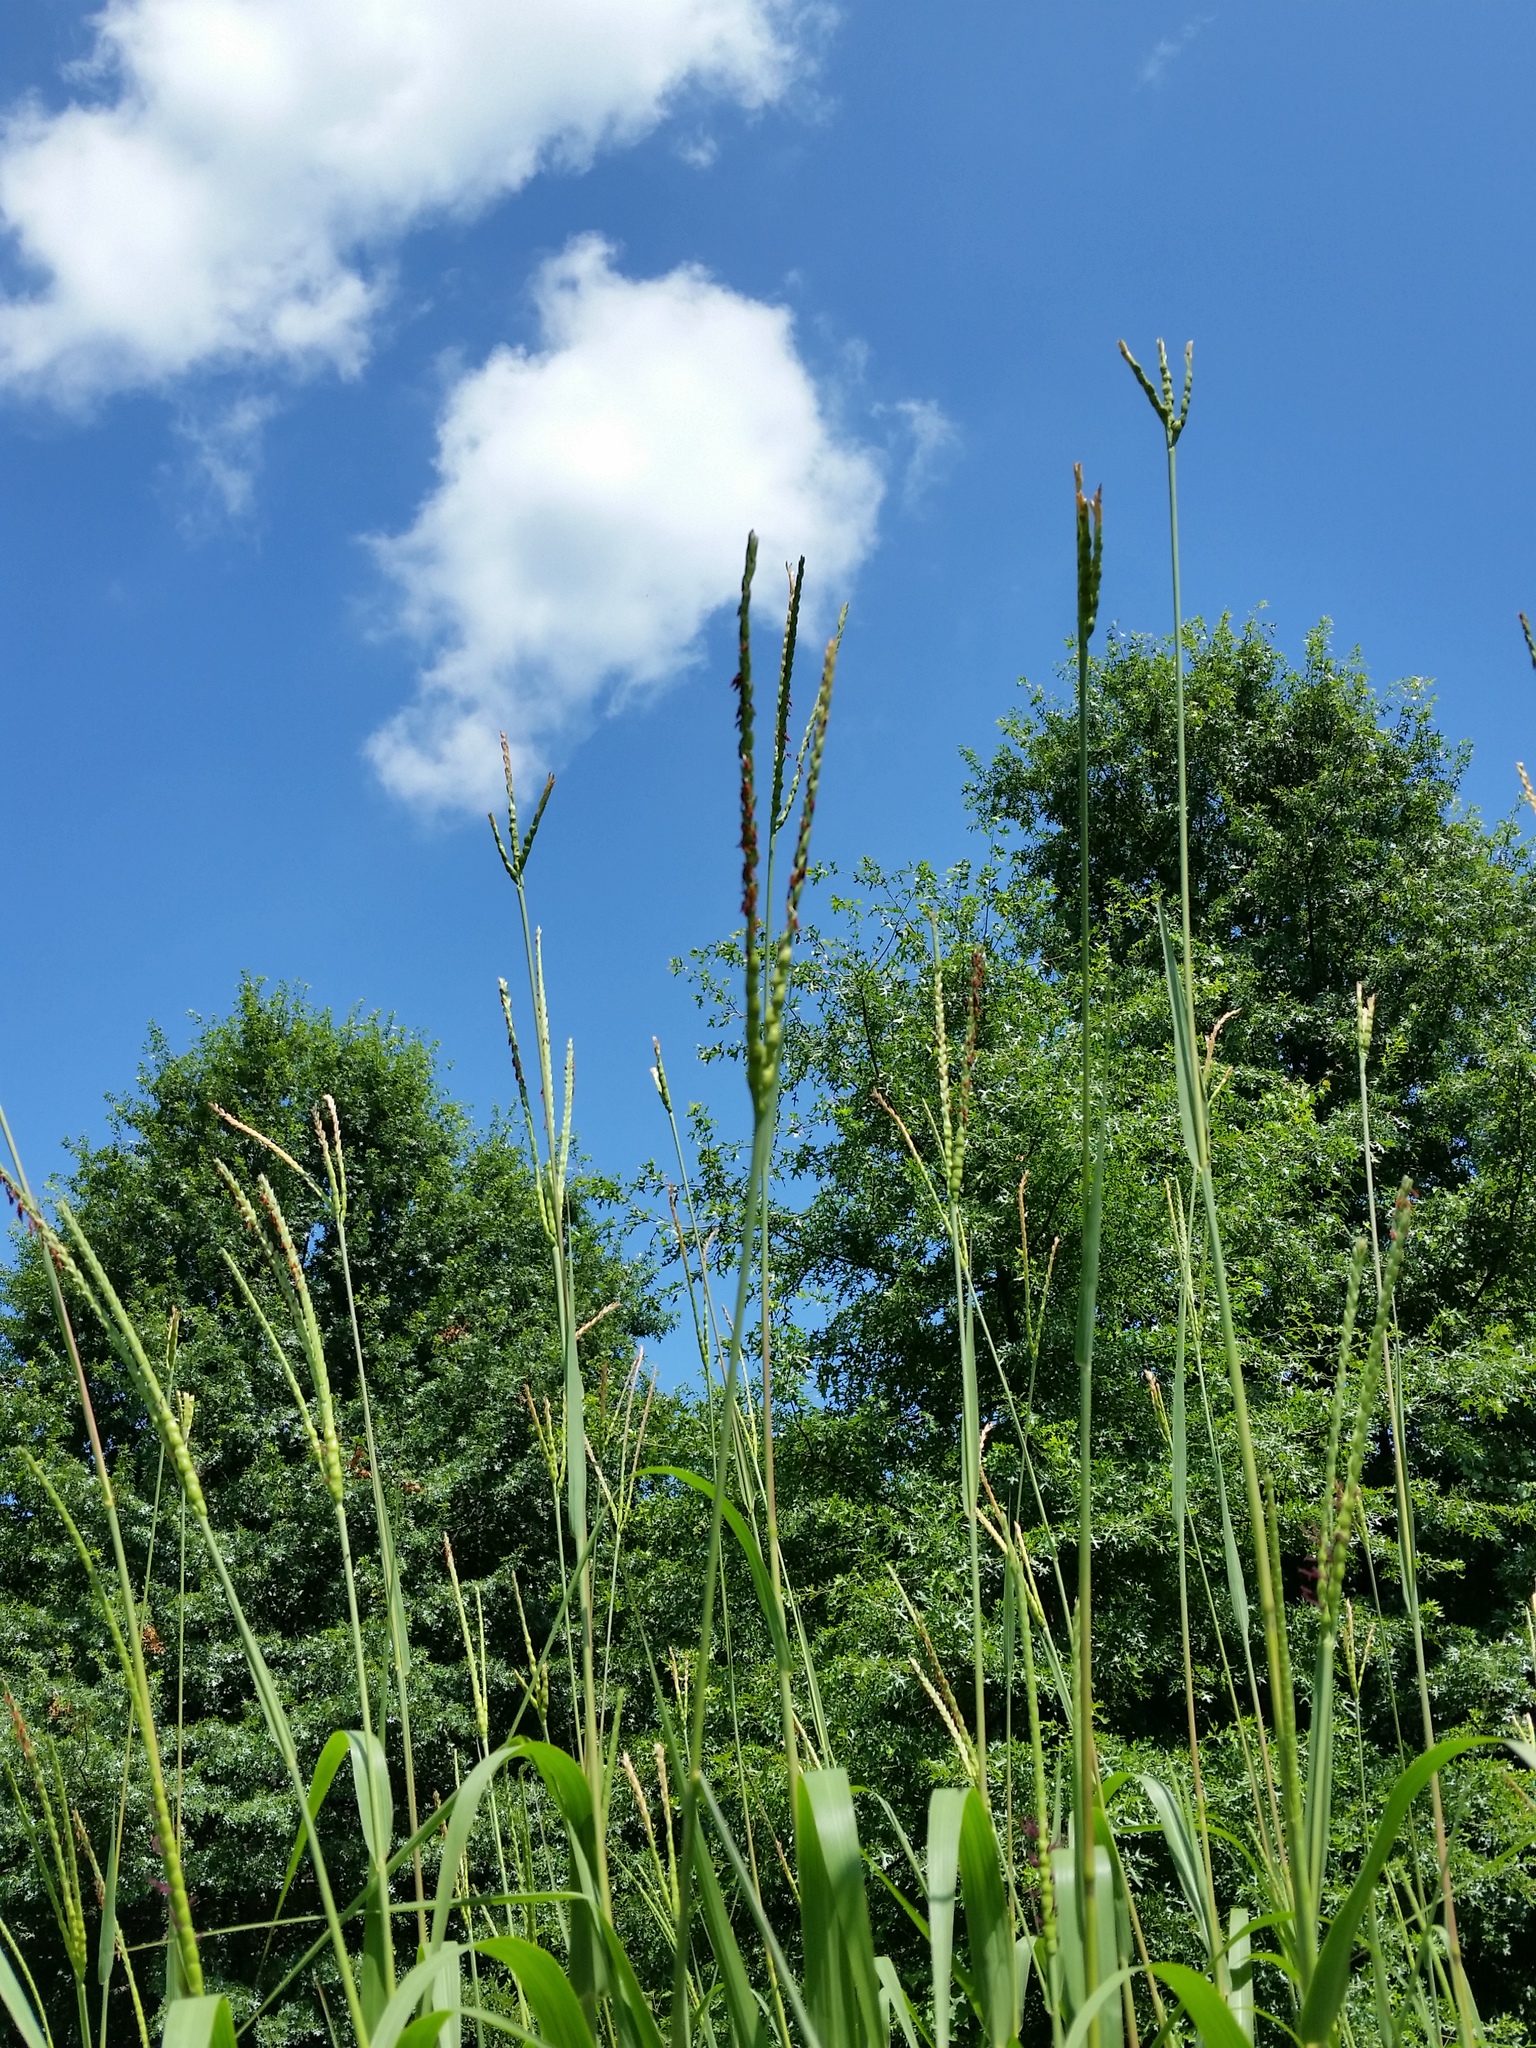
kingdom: Plantae
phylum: Tracheophyta
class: Liliopsida
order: Poales
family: Poaceae
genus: Tripsacum
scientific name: Tripsacum dactyloides
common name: Buffalo-grass
